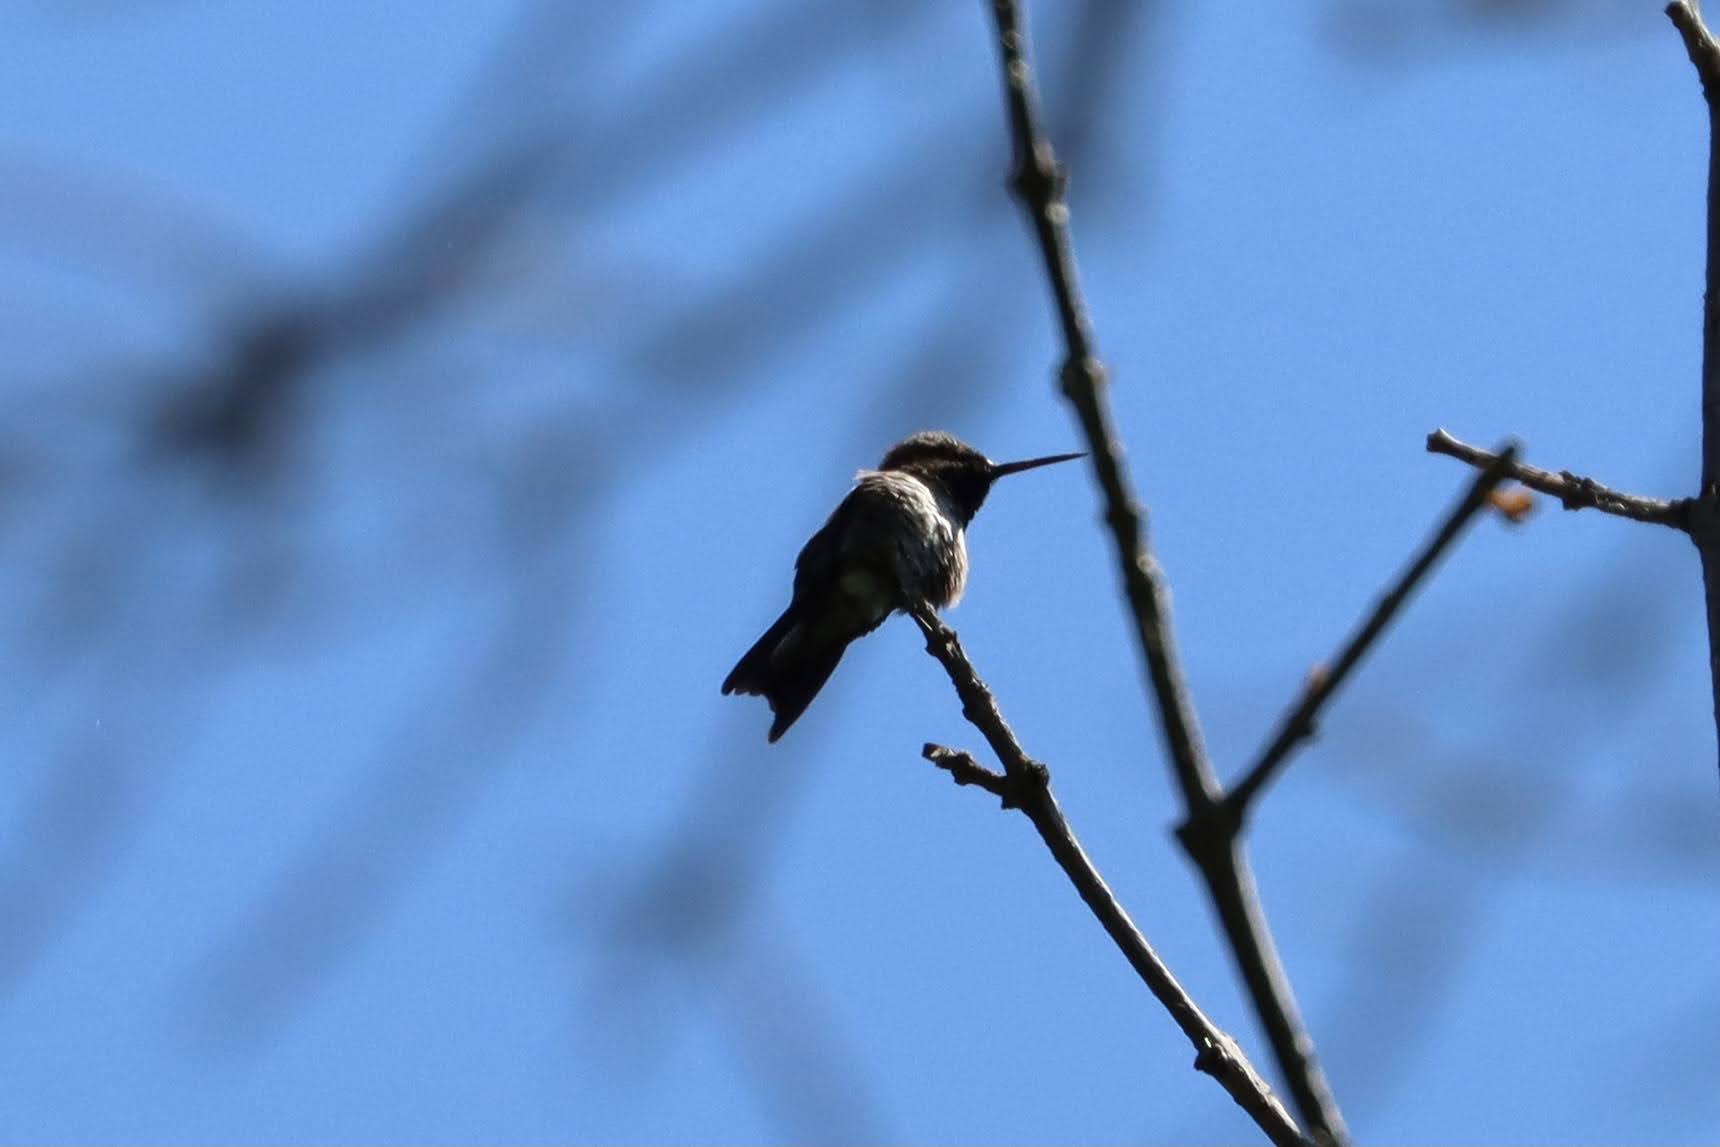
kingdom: Animalia
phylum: Chordata
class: Aves
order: Apodiformes
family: Trochilidae
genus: Archilochus
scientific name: Archilochus colubris
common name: Ruby-throated hummingbird
